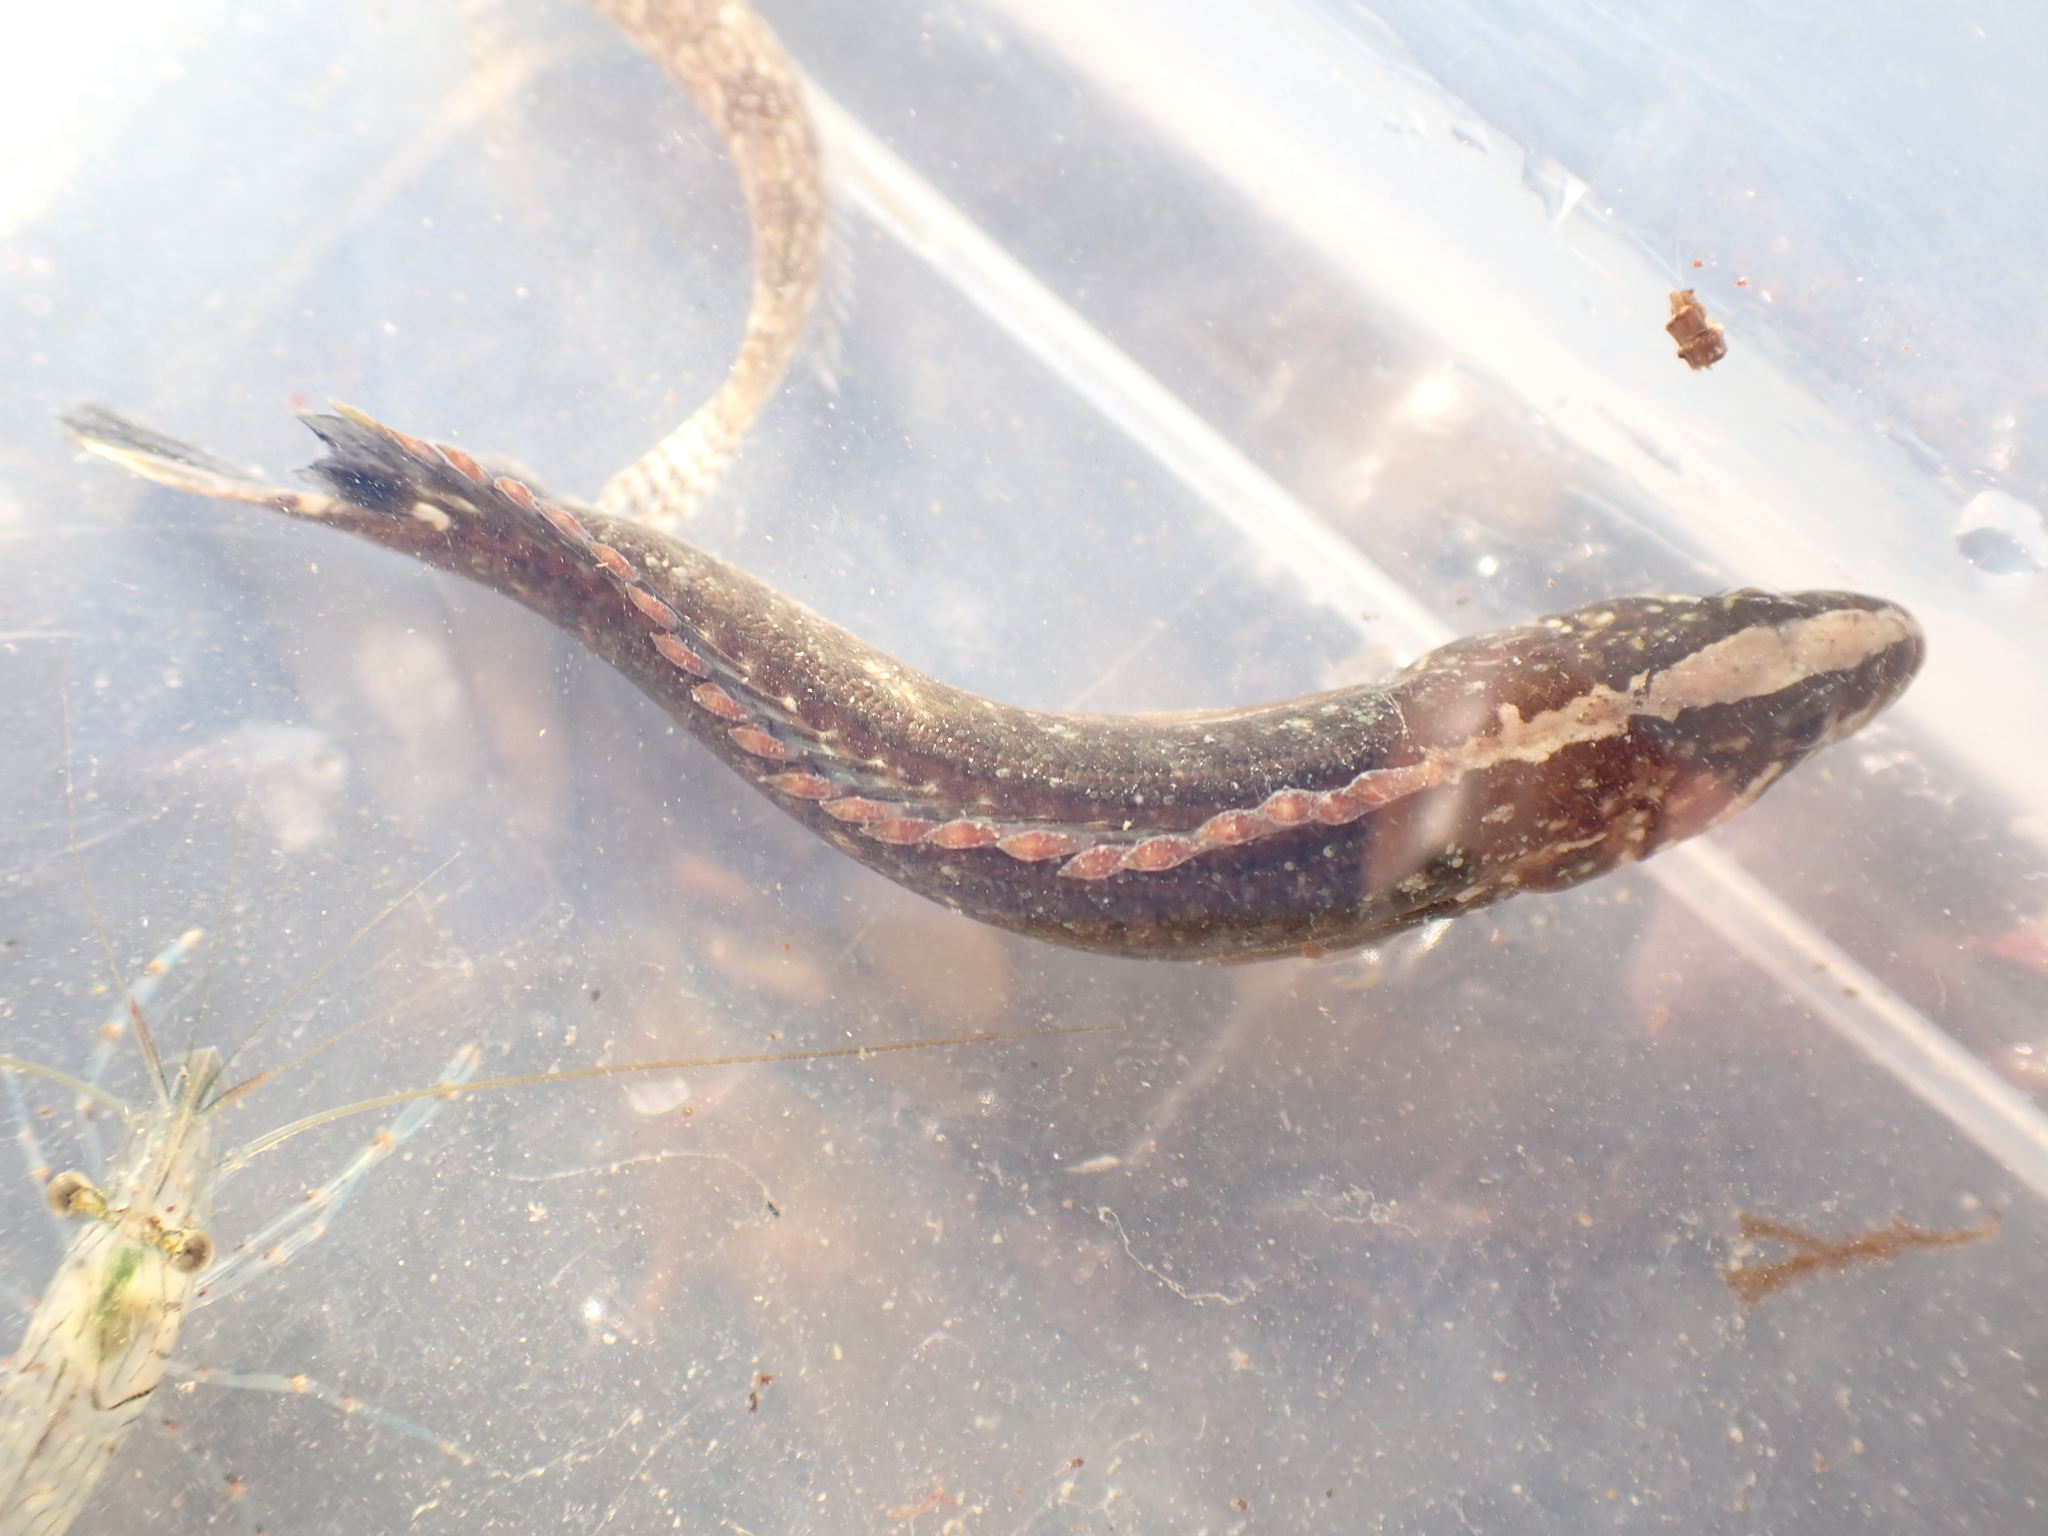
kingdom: Animalia
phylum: Chordata
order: Perciformes
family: Plesiopidae
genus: Acanthoclinus
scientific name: Acanthoclinus fuscus
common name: Olive rockfish
